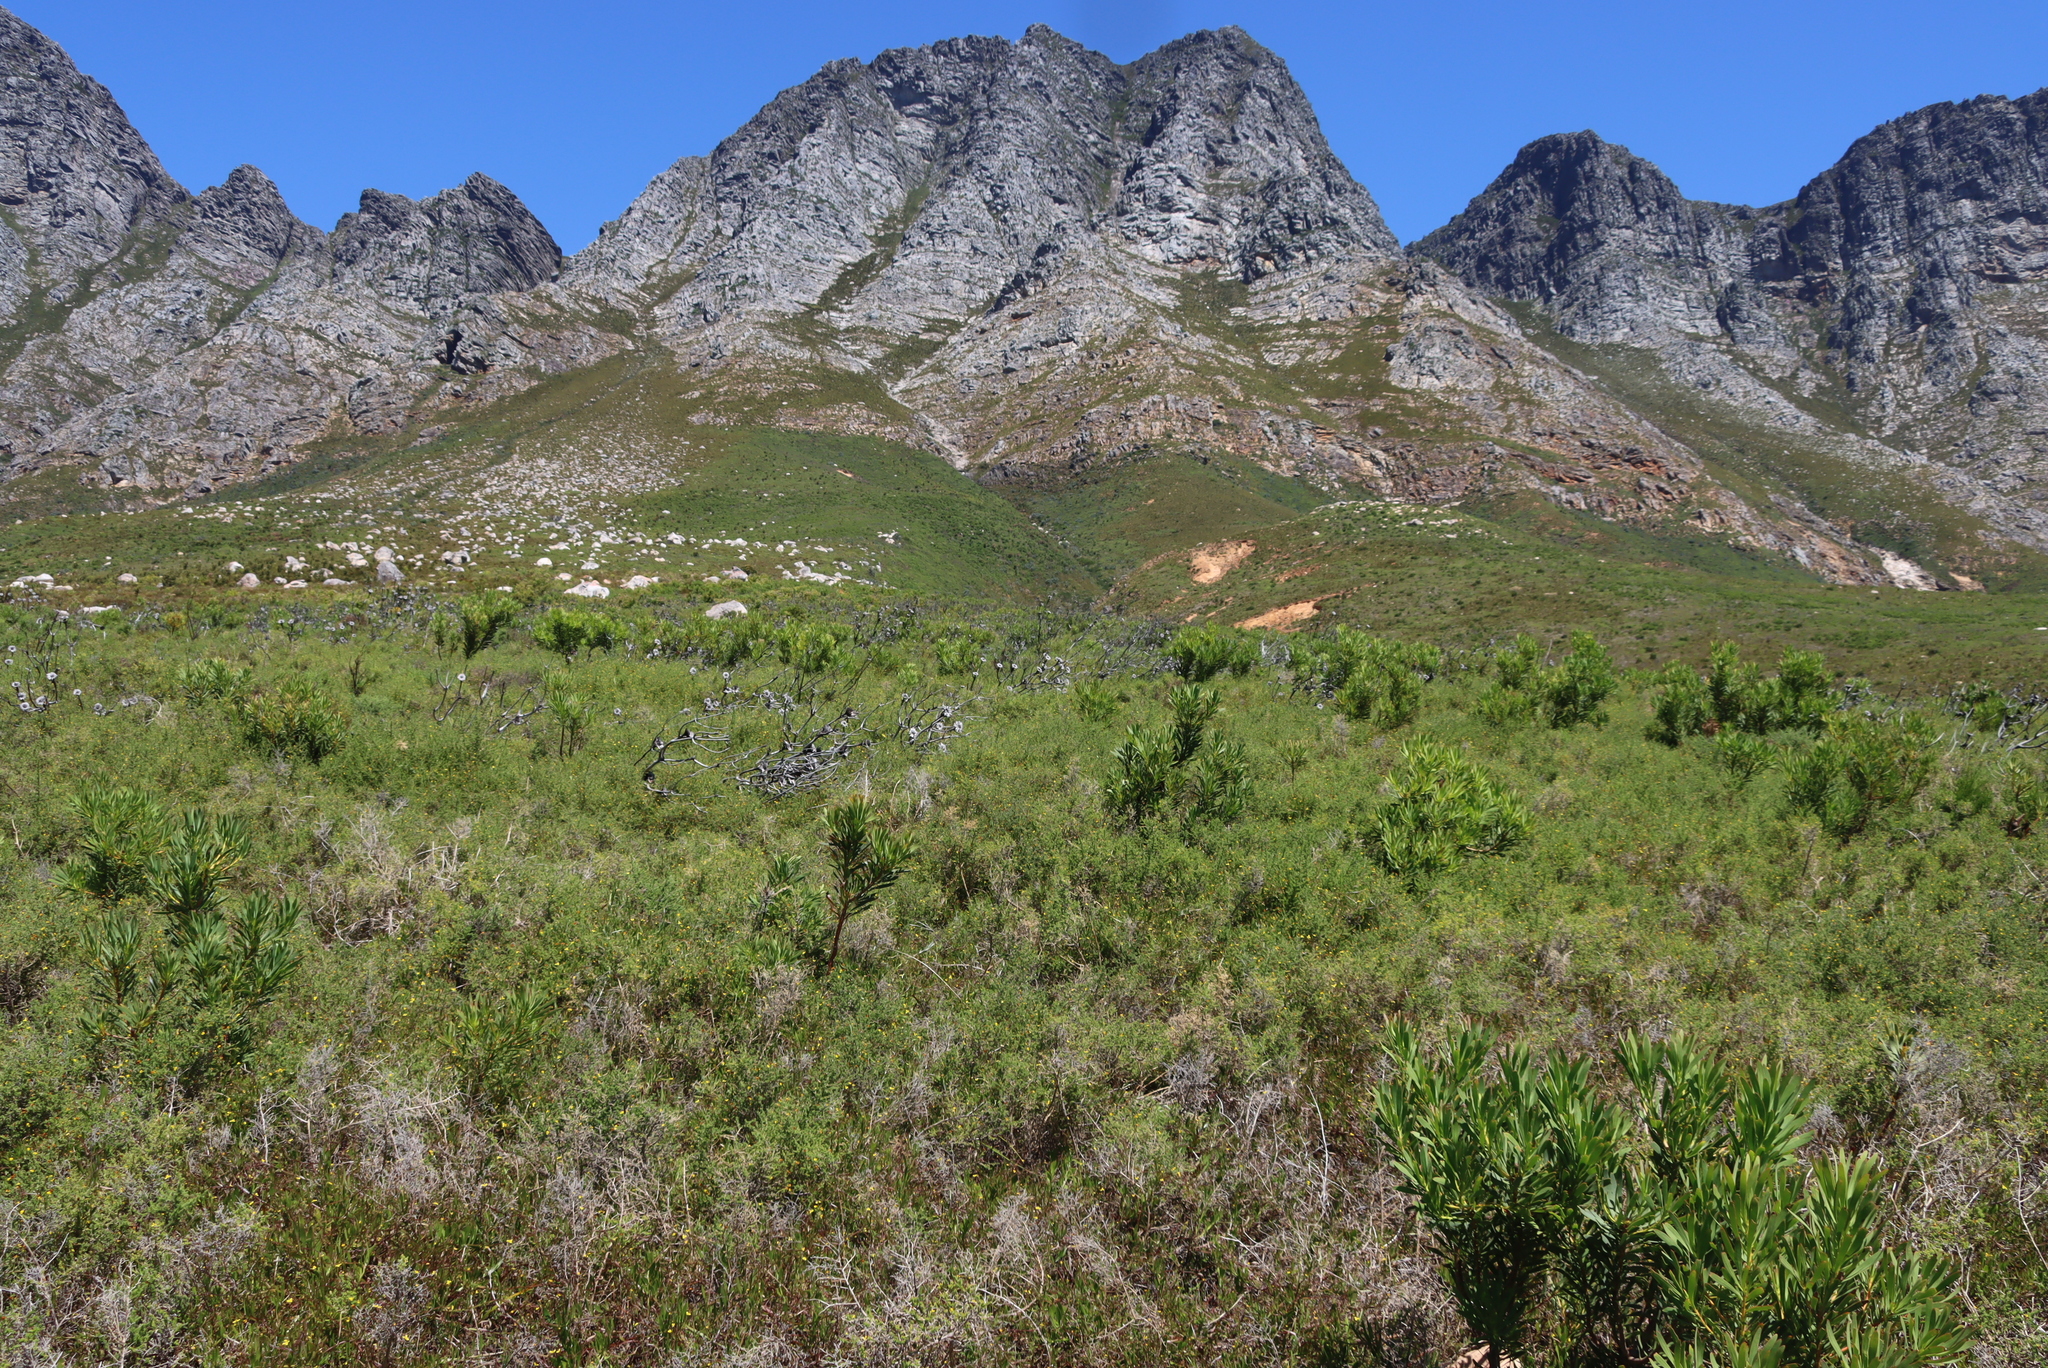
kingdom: Plantae
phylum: Tracheophyta
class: Magnoliopsida
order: Proteales
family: Proteaceae
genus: Protea
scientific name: Protea laurifolia
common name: Grey-leaf sugarbsh
